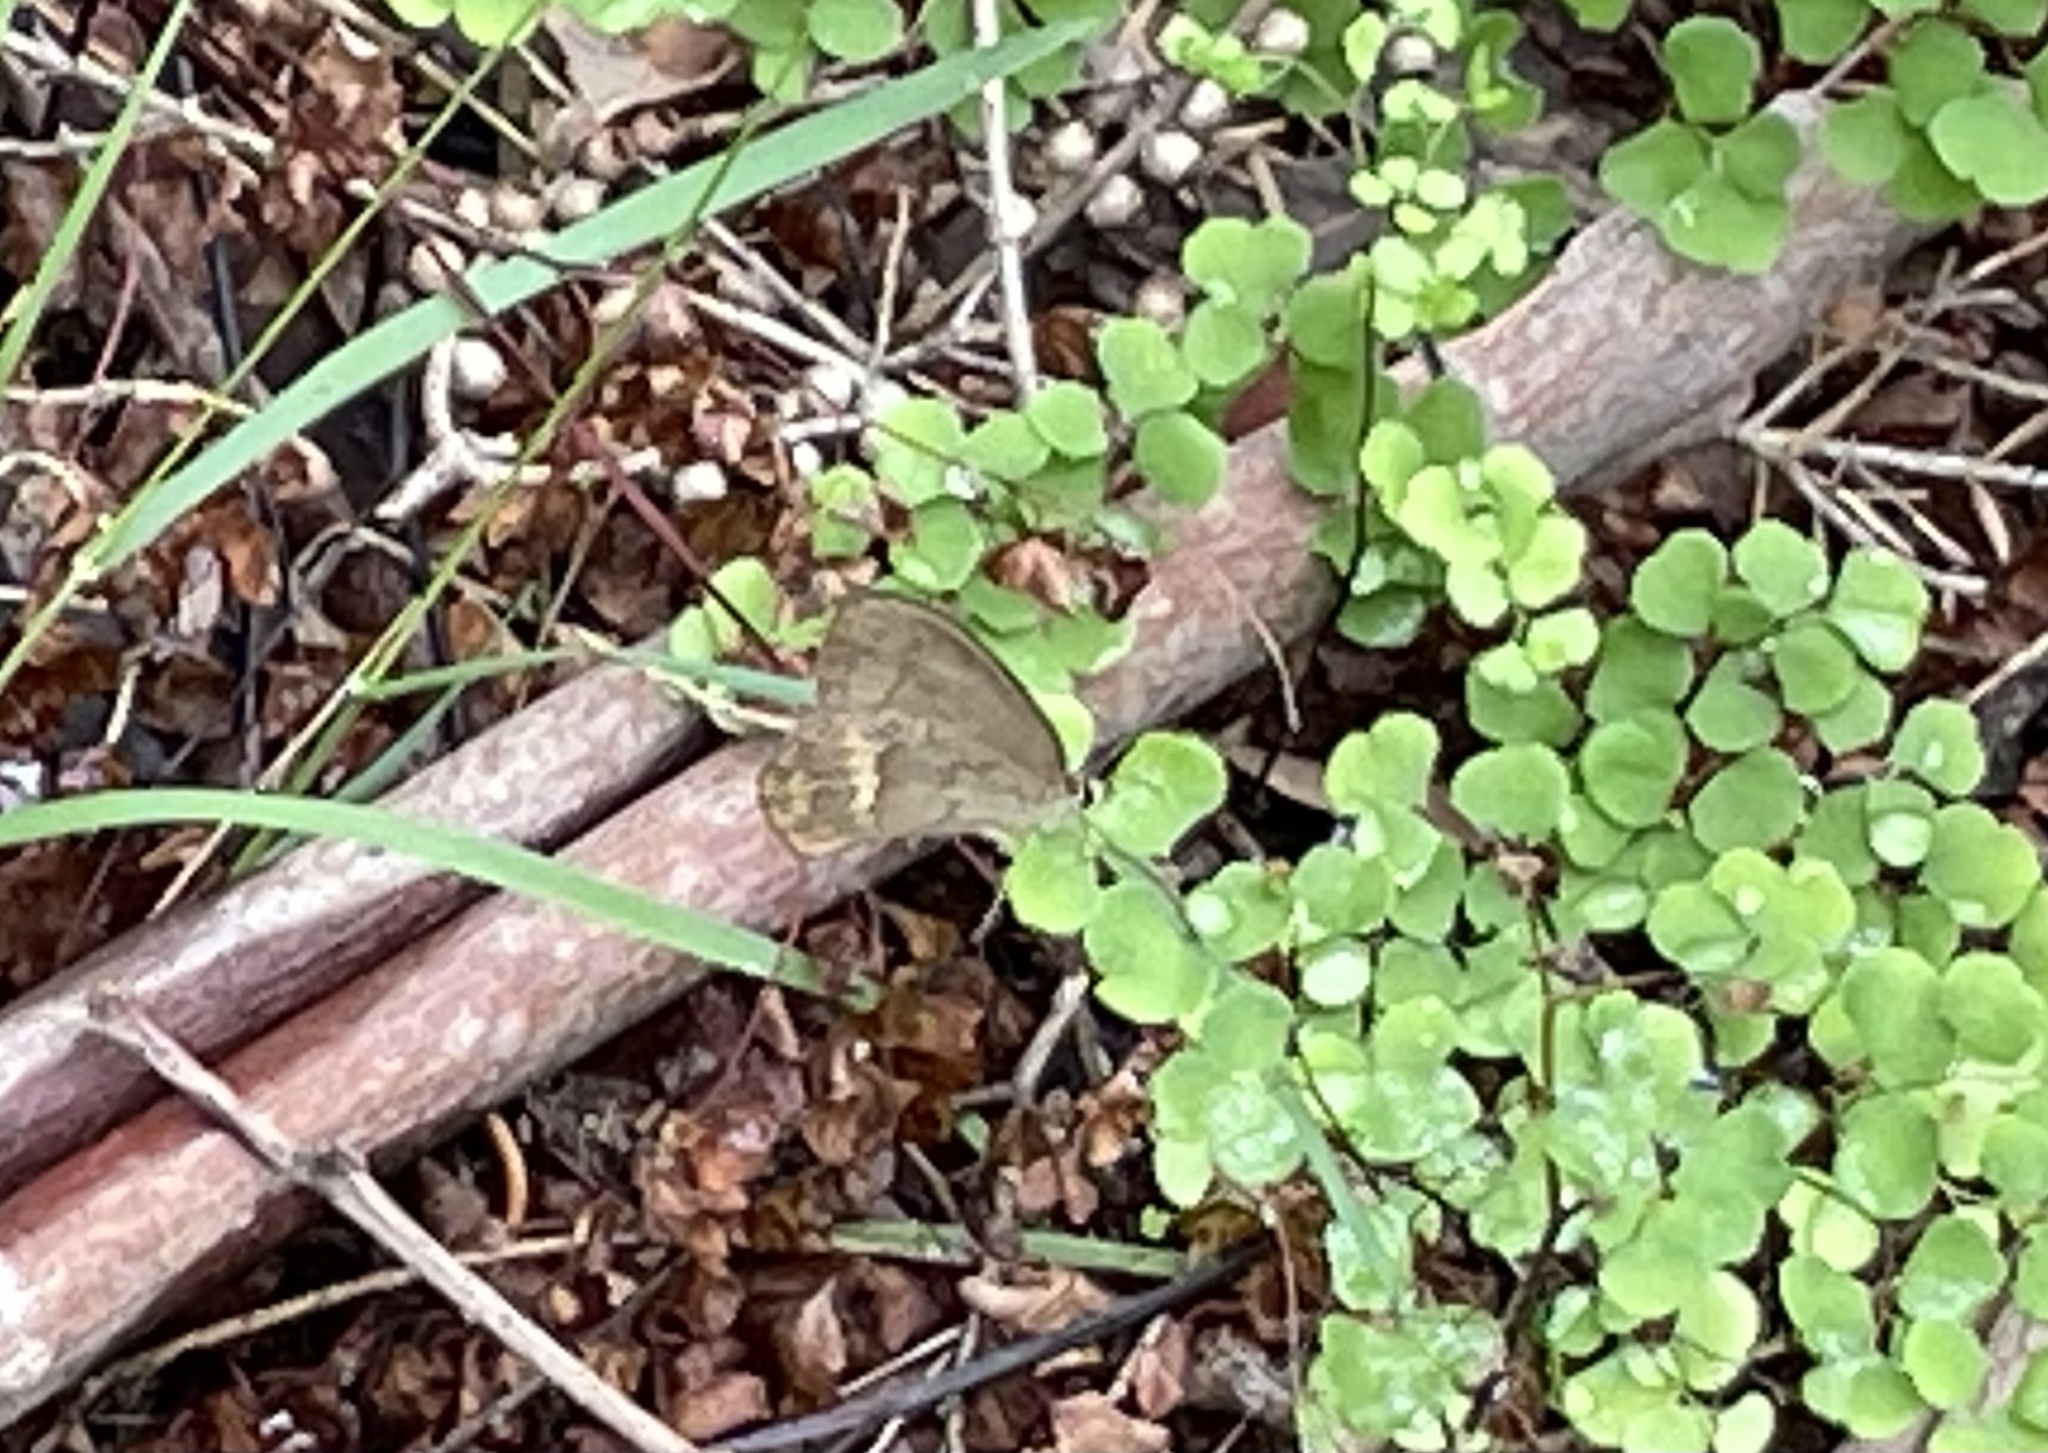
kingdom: Animalia
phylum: Arthropoda
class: Insecta
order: Lepidoptera
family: Nymphalidae
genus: Hypocysta
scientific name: Hypocysta pseudirius
